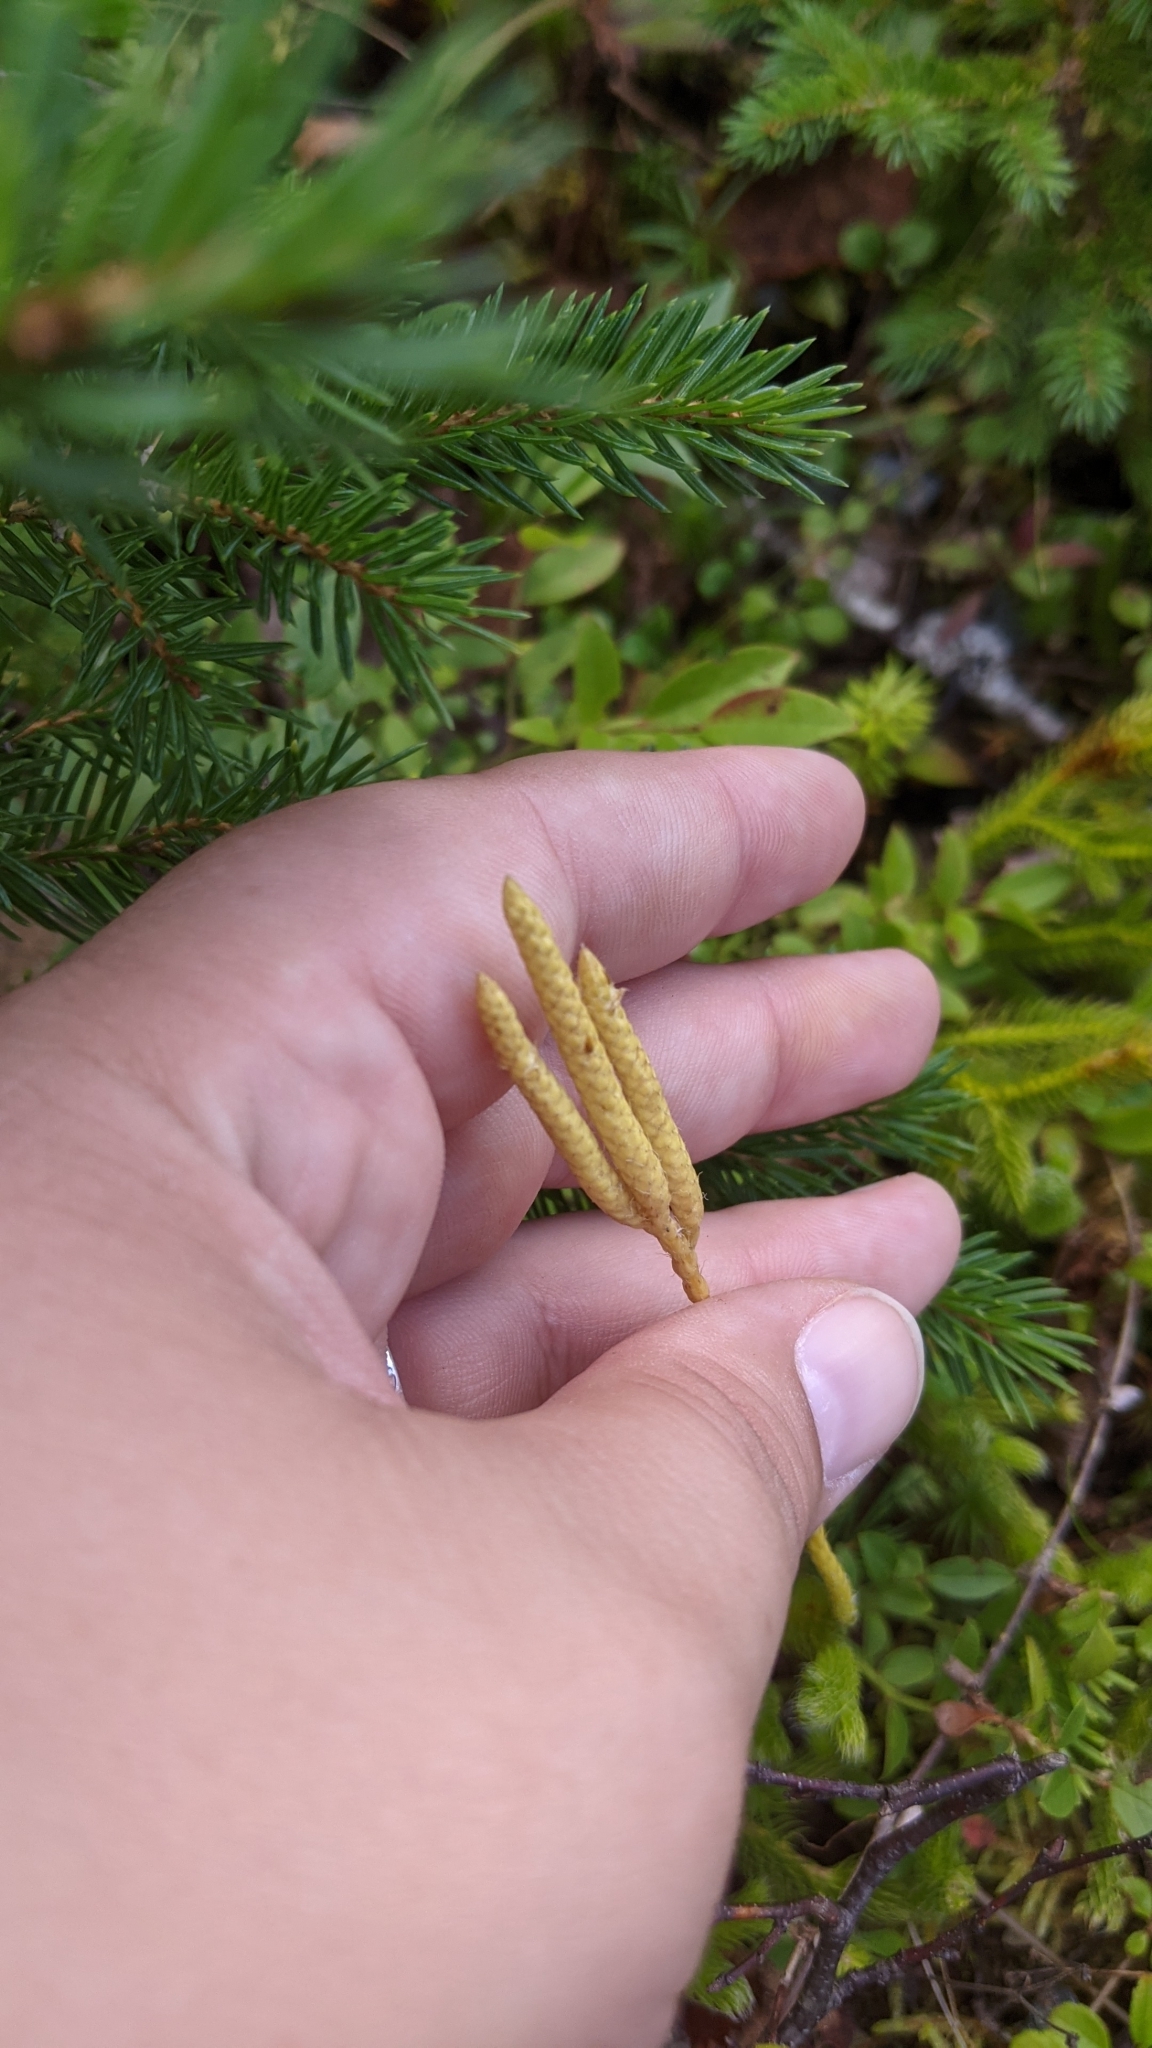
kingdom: Plantae
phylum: Tracheophyta
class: Lycopodiopsida
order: Lycopodiales
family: Lycopodiaceae
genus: Lycopodium
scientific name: Lycopodium clavatum
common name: Stag's-horn clubmoss
